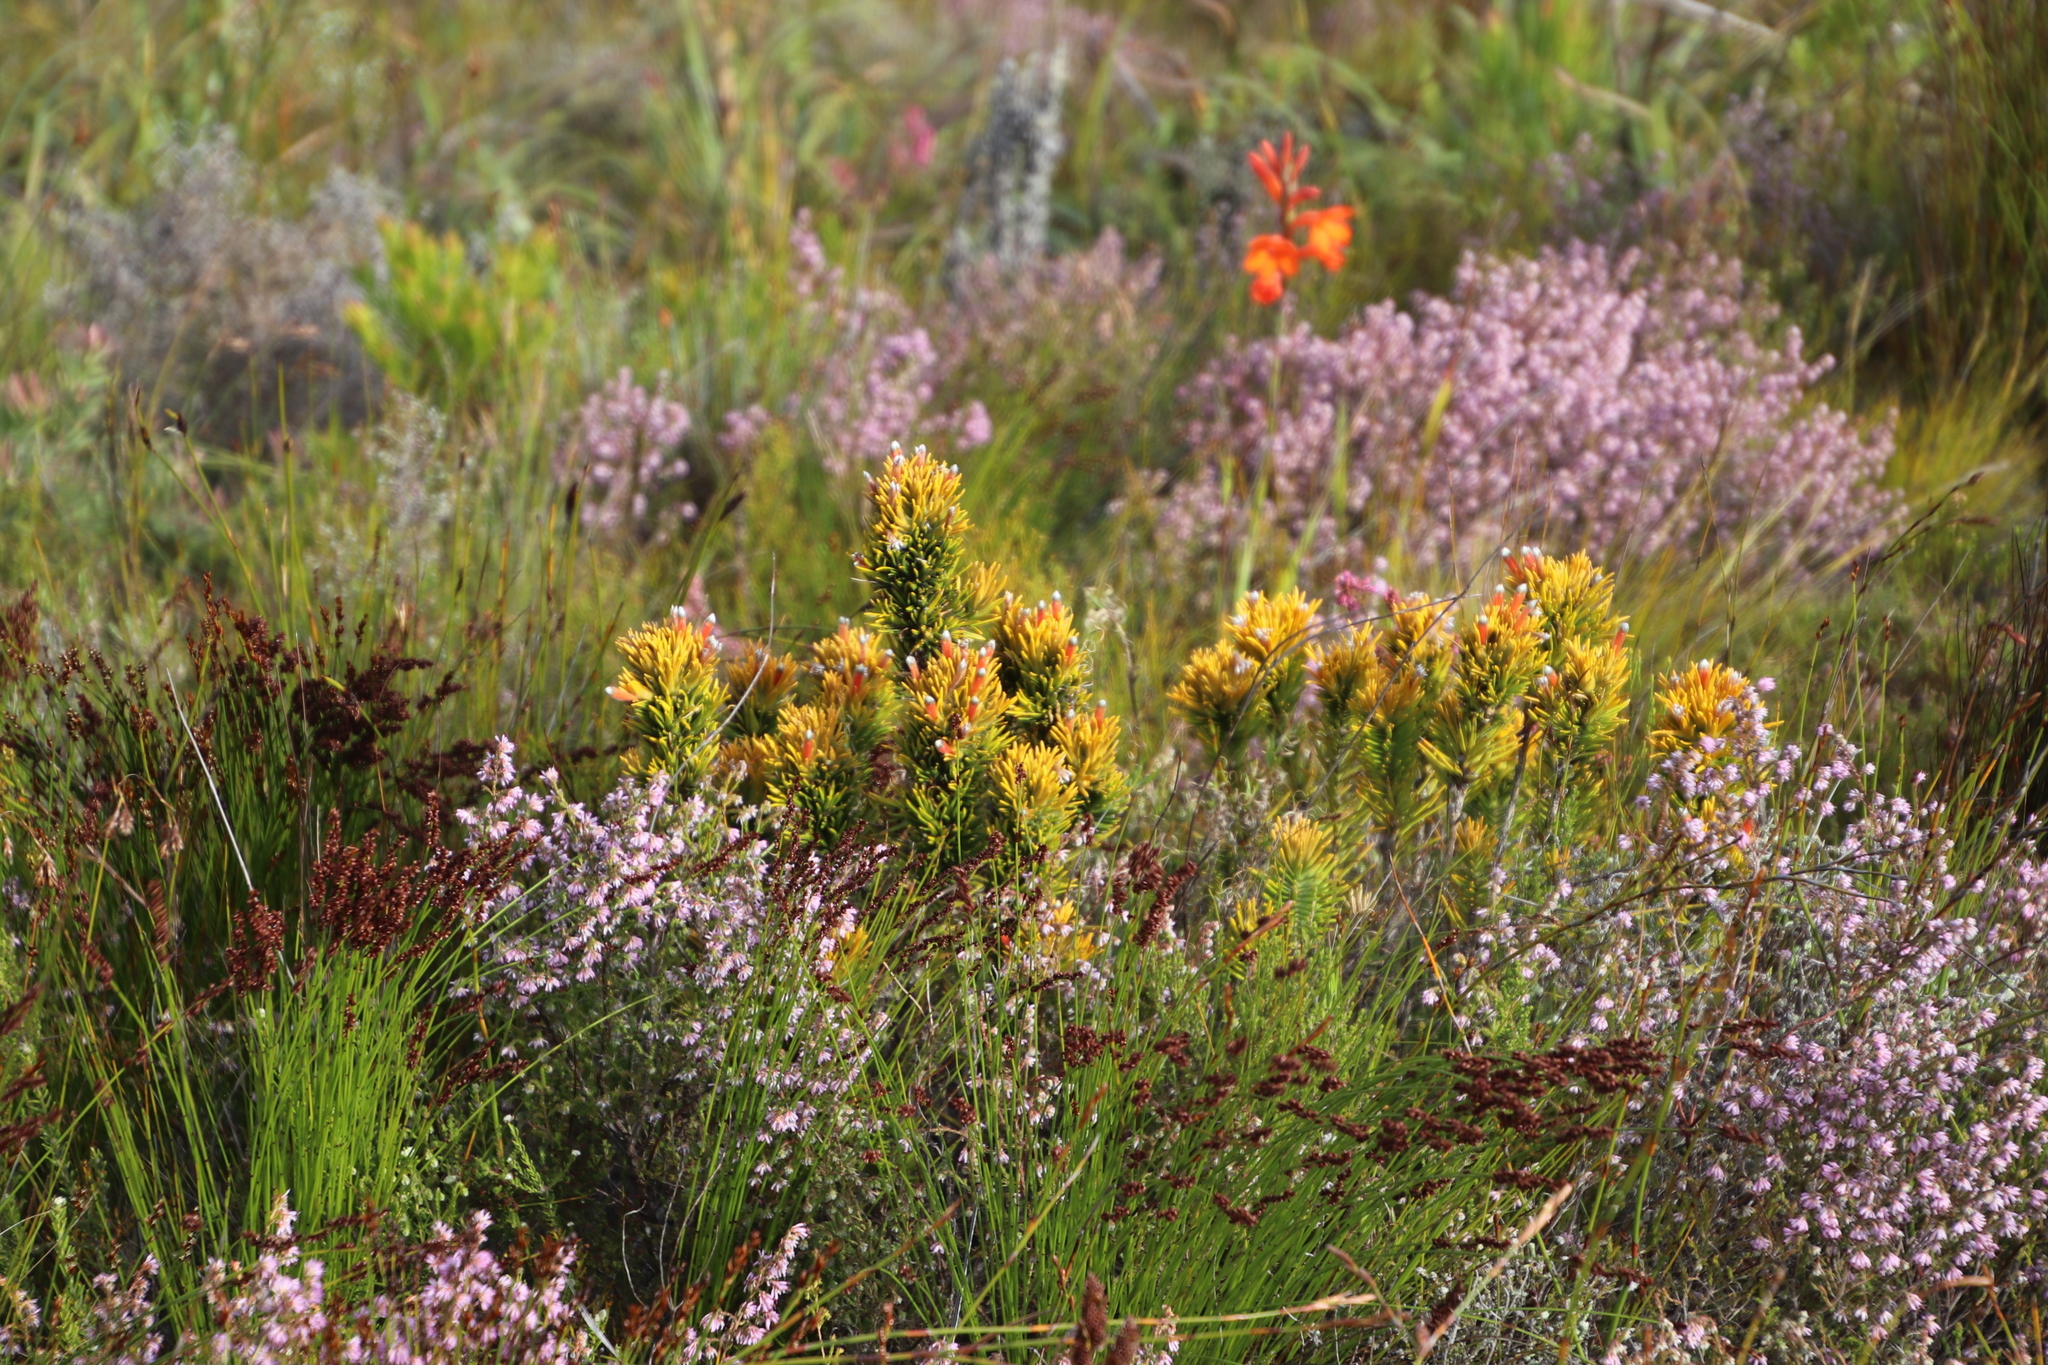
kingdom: Plantae
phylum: Tracheophyta
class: Magnoliopsida
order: Lamiales
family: Stilbaceae
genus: Retzia
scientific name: Retzia capensis
